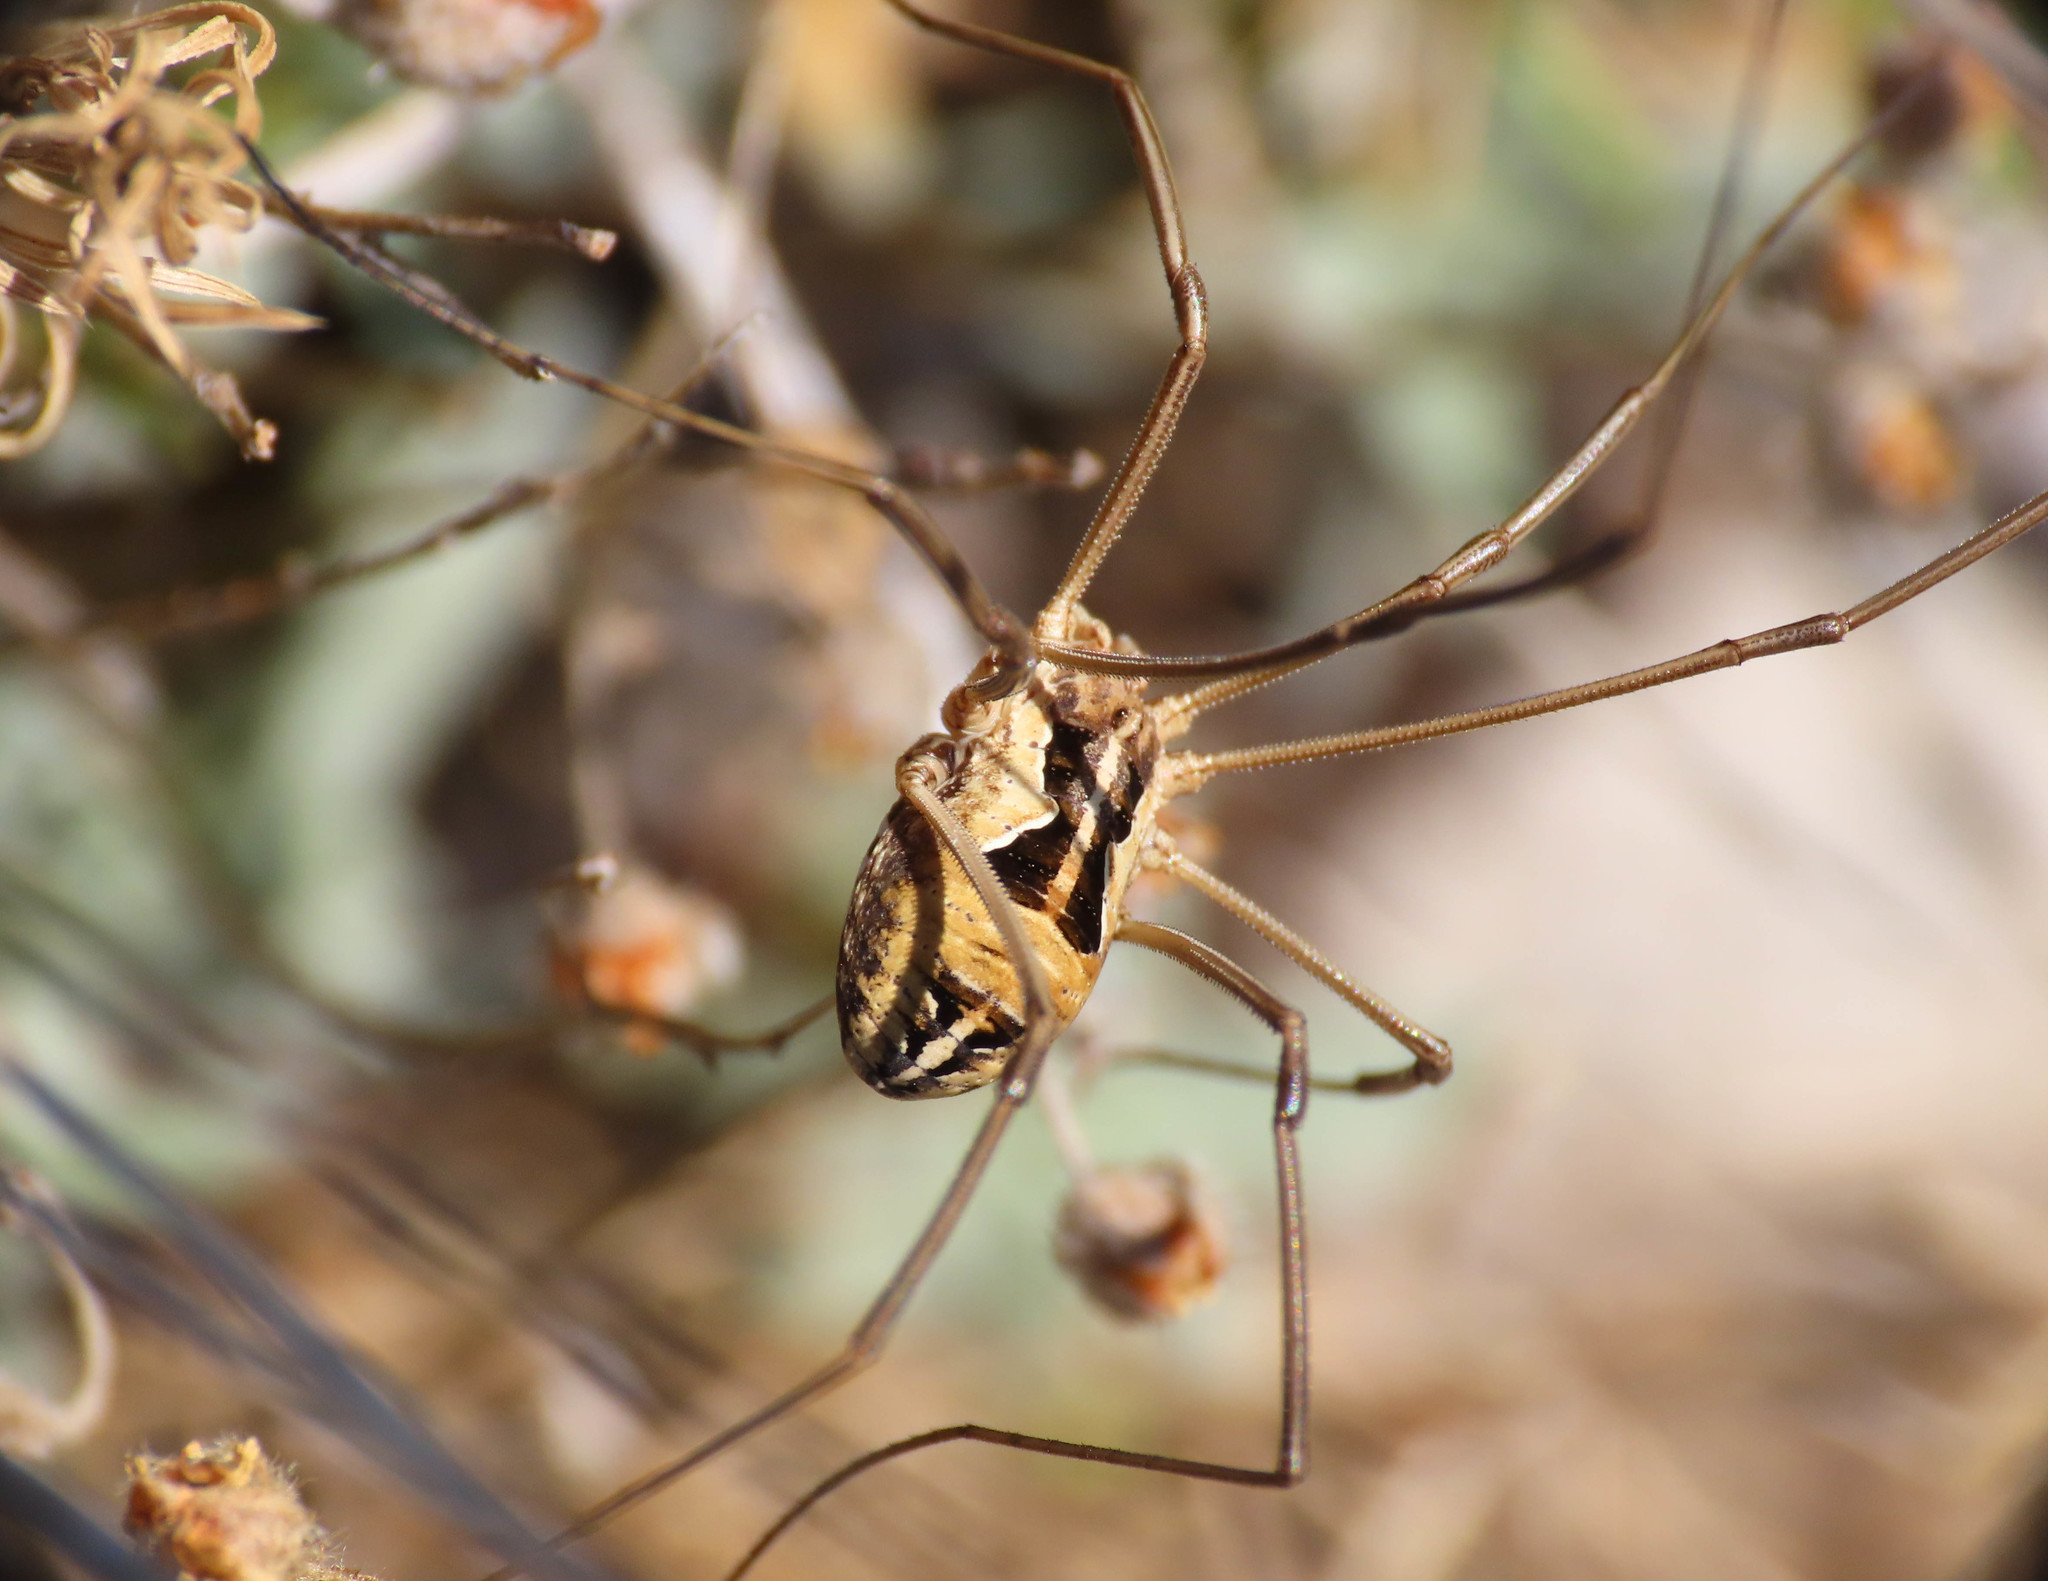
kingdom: Animalia
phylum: Arthropoda
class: Arachnida
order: Opiliones
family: Phalangiidae
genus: Metaphalangium
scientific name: Metaphalangium cirtanum
